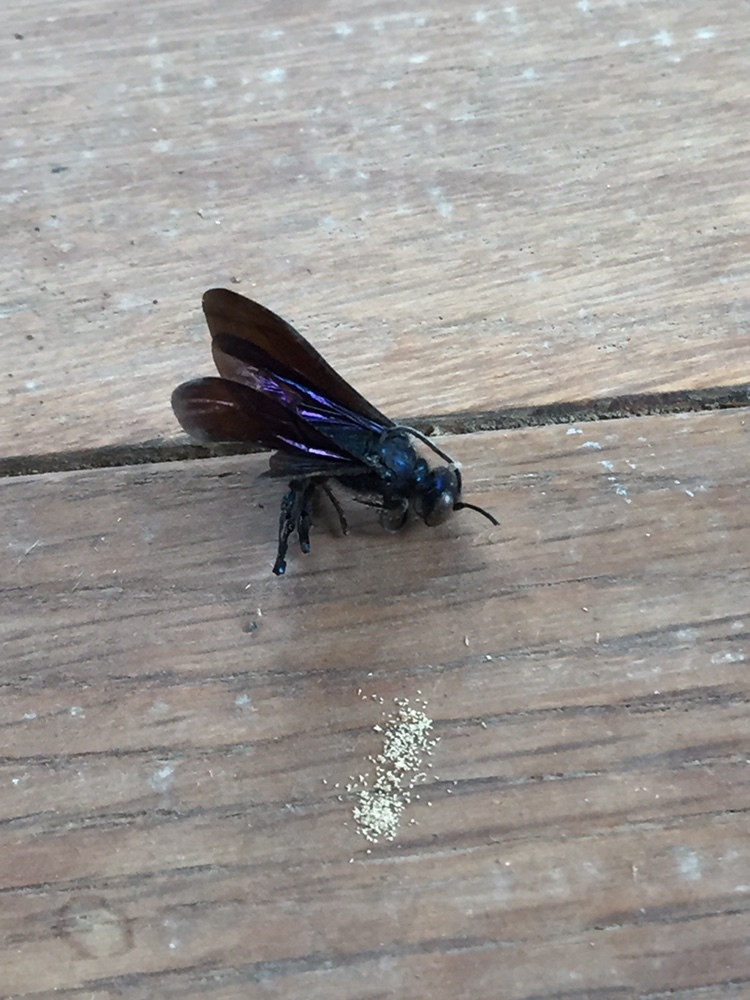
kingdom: Animalia
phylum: Arthropoda
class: Insecta
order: Hymenoptera
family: Sphecidae
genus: Chalybion
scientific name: Chalybion californicum
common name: Mud dauber
